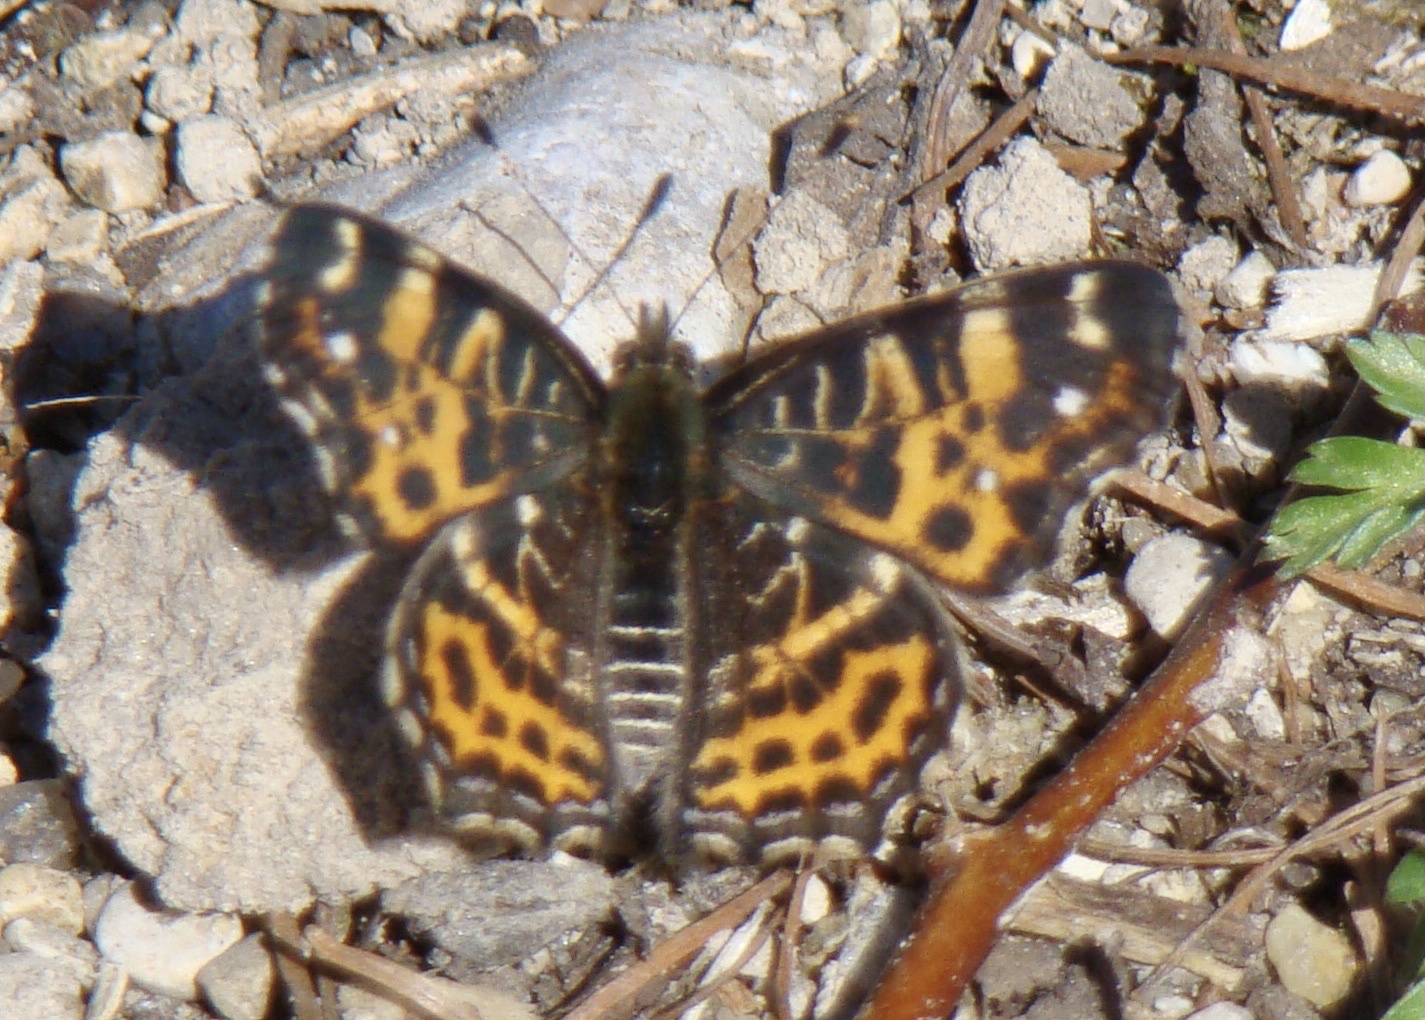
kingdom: Animalia
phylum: Arthropoda
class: Insecta
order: Lepidoptera
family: Nymphalidae
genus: Araschnia
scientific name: Araschnia levana
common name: Map butterfly
